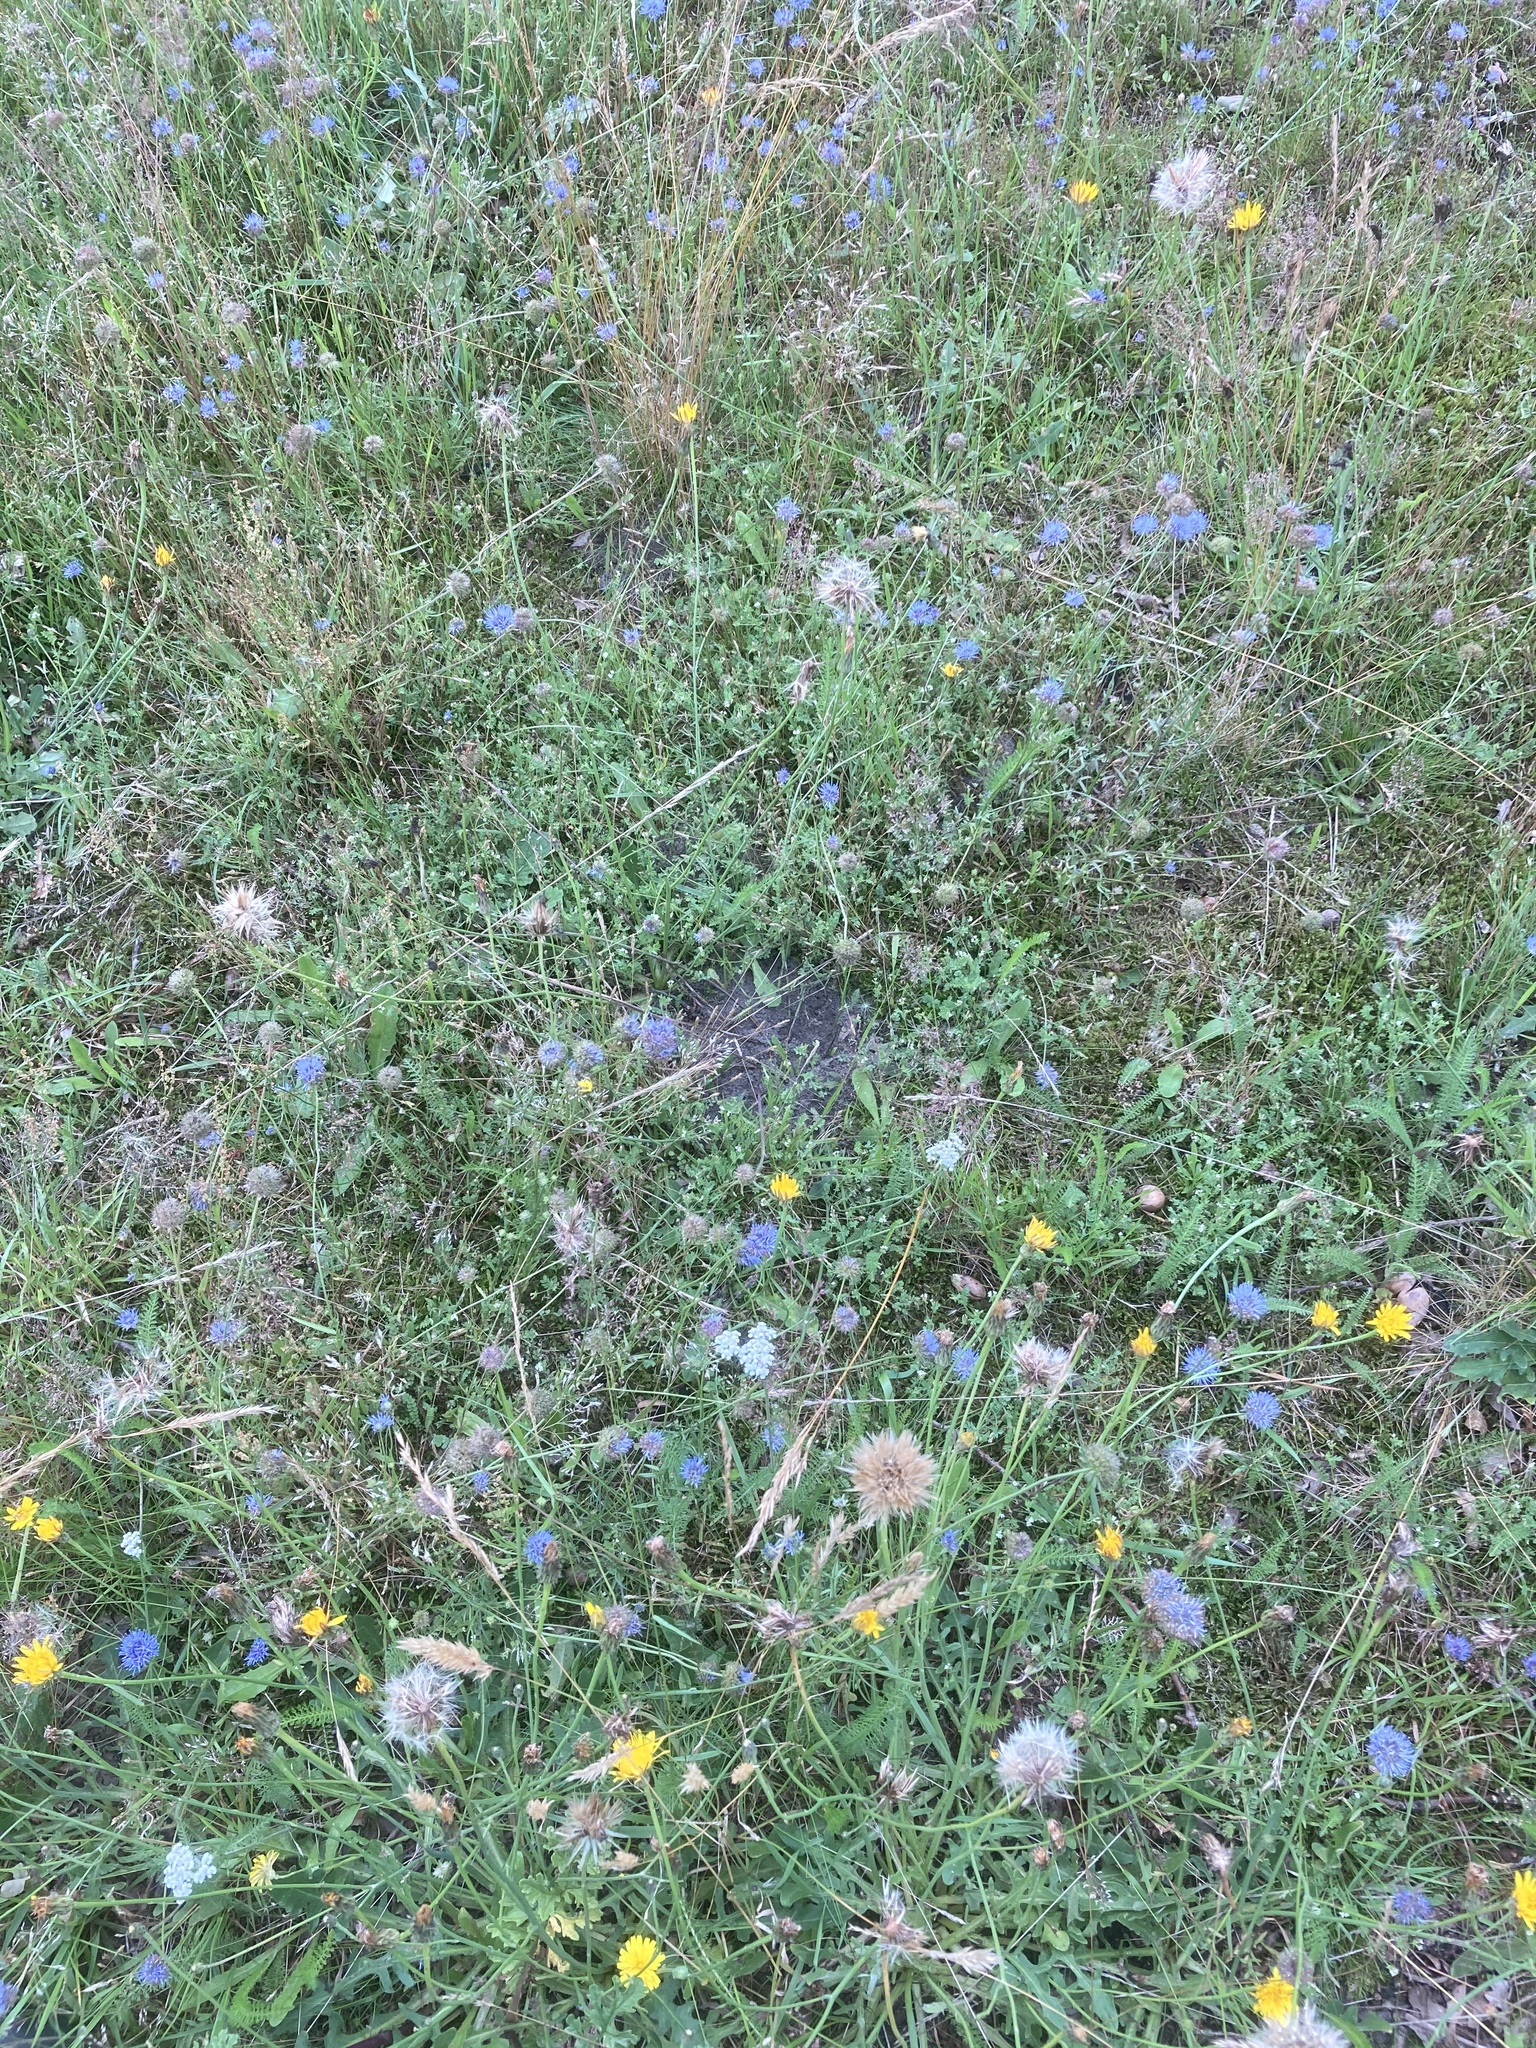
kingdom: Plantae
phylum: Tracheophyta
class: Magnoliopsida
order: Asterales
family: Campanulaceae
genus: Jasione
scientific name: Jasione montana
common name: Sheep's-bit
